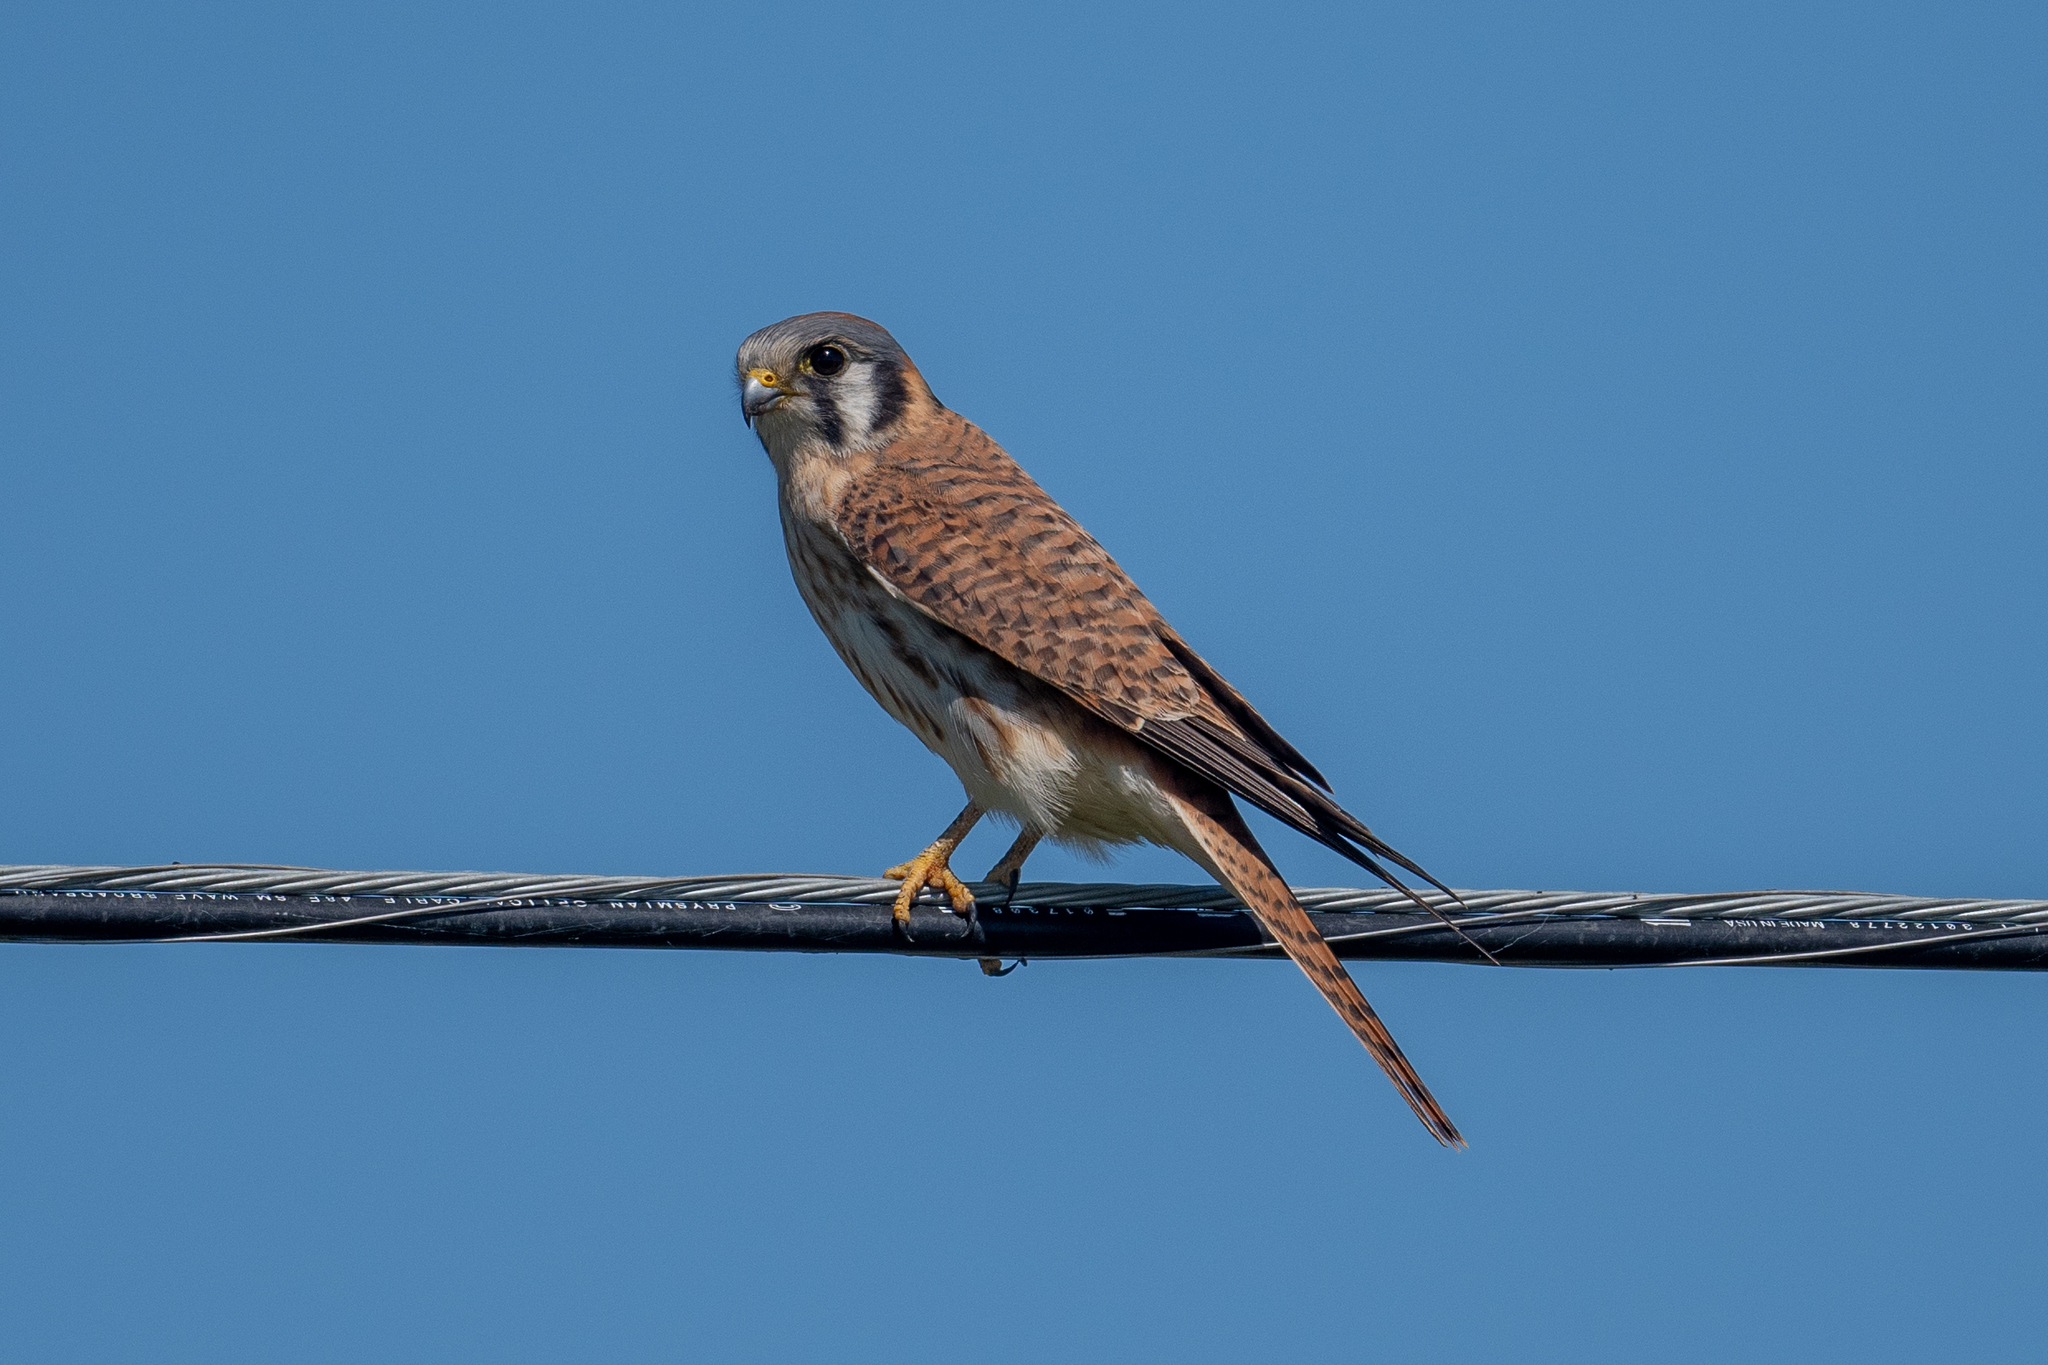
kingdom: Animalia
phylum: Chordata
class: Aves
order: Falconiformes
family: Falconidae
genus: Falco
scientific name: Falco sparverius
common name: American kestrel
